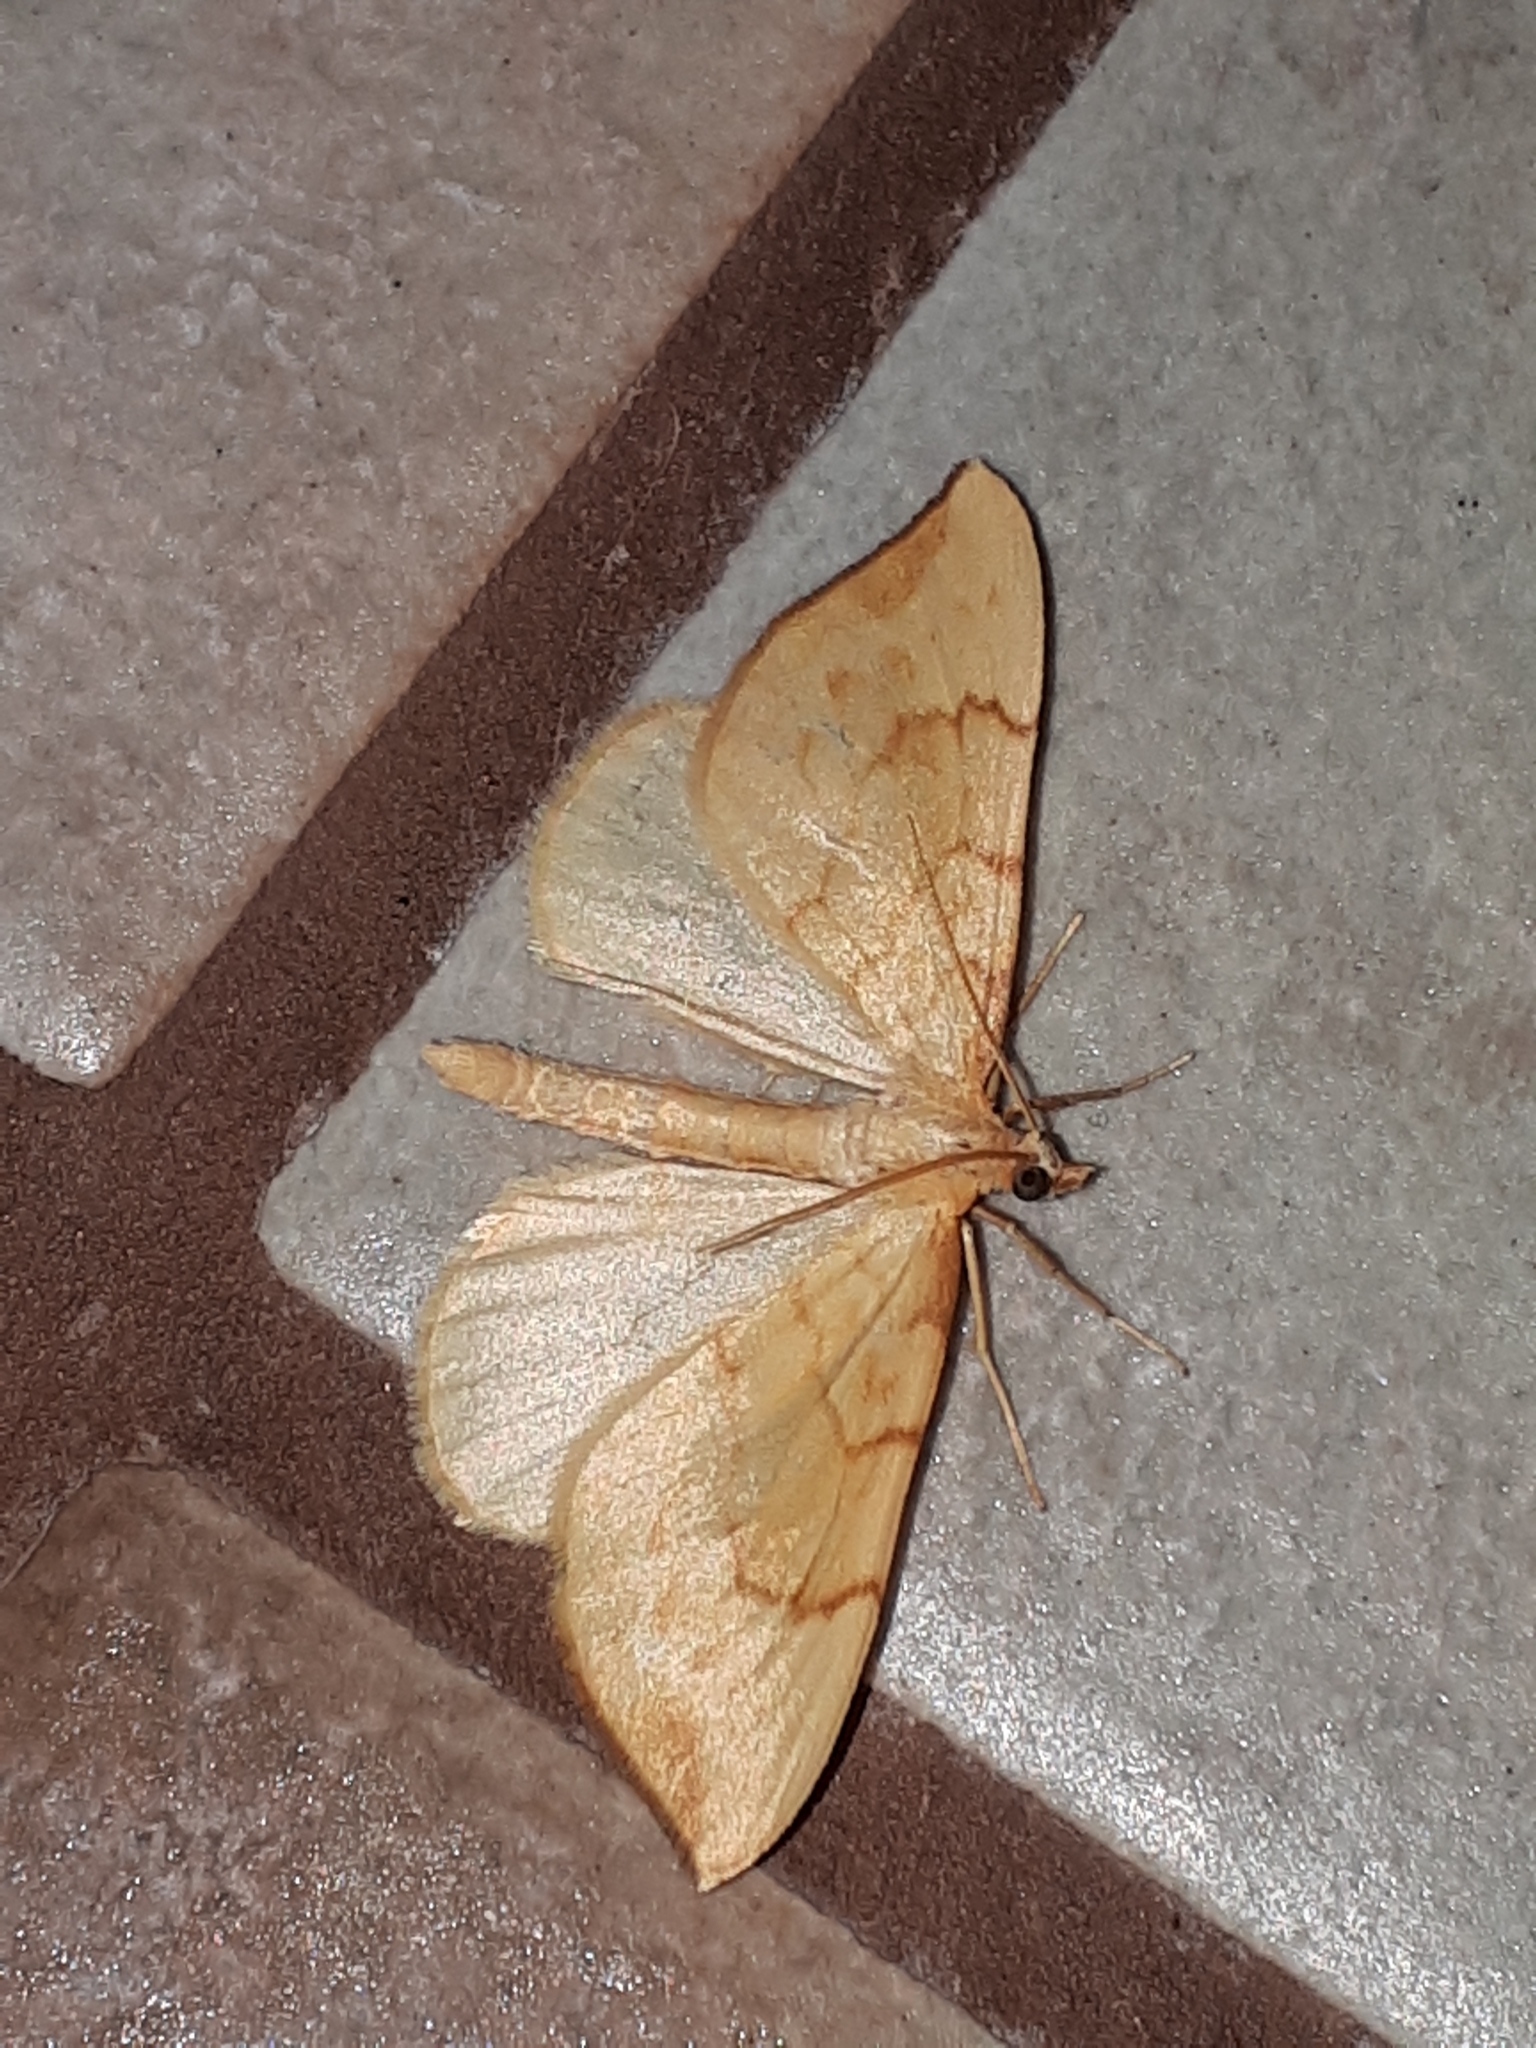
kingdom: Animalia
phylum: Arthropoda
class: Insecta
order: Lepidoptera
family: Geometridae
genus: Eulithis
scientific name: Eulithis pyraliata
